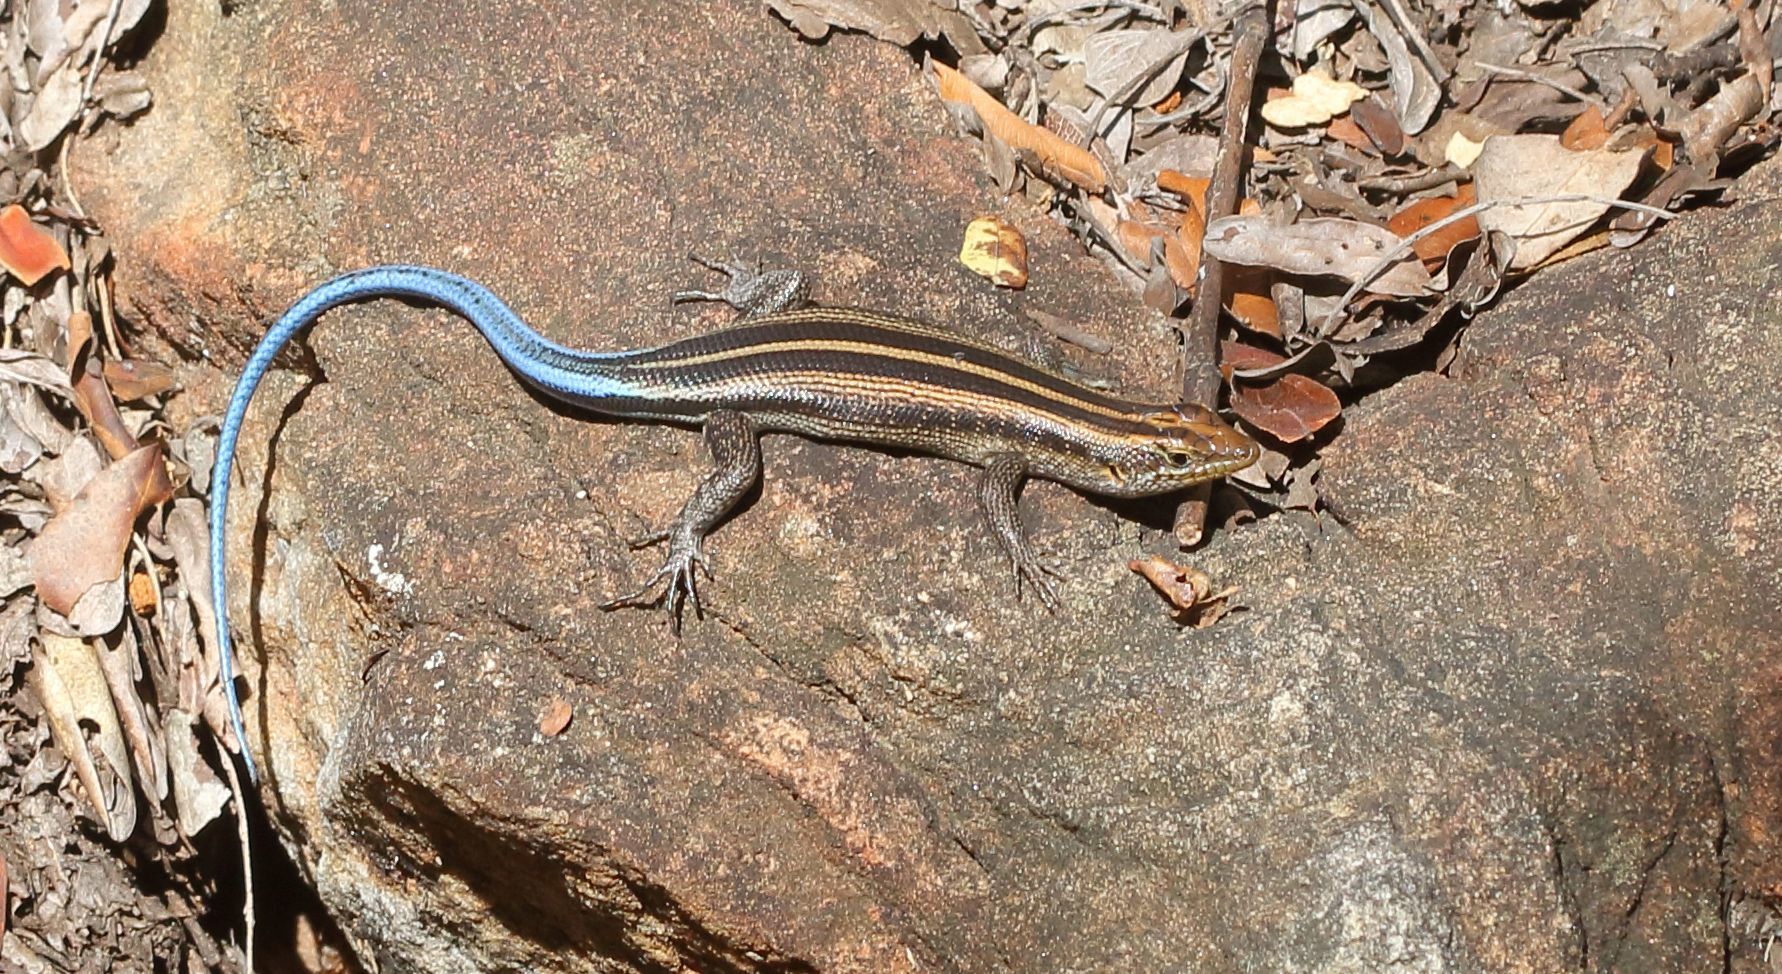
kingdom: Animalia
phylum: Chordata
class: Squamata
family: Scincidae
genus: Trachylepis
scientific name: Trachylepis margaritifera
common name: Rainbow skink
